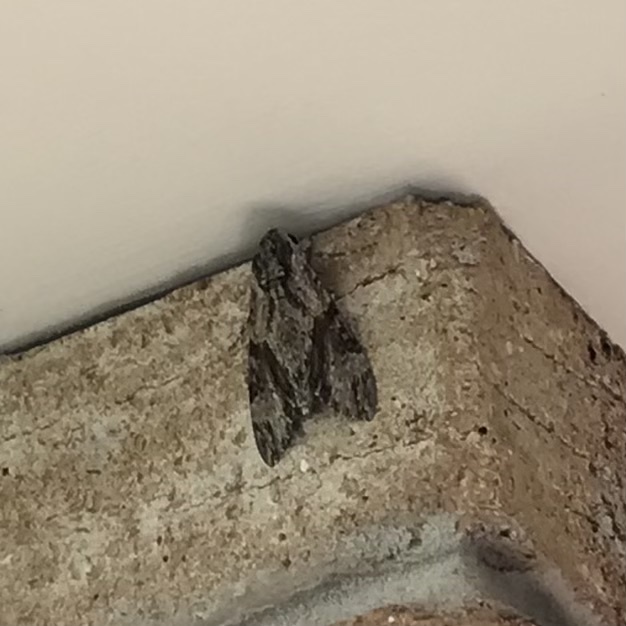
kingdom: Animalia
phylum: Arthropoda
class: Insecta
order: Lepidoptera
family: Sphingidae
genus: Agrius
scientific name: Agrius convolvuli
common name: Convolvulus hawkmoth
